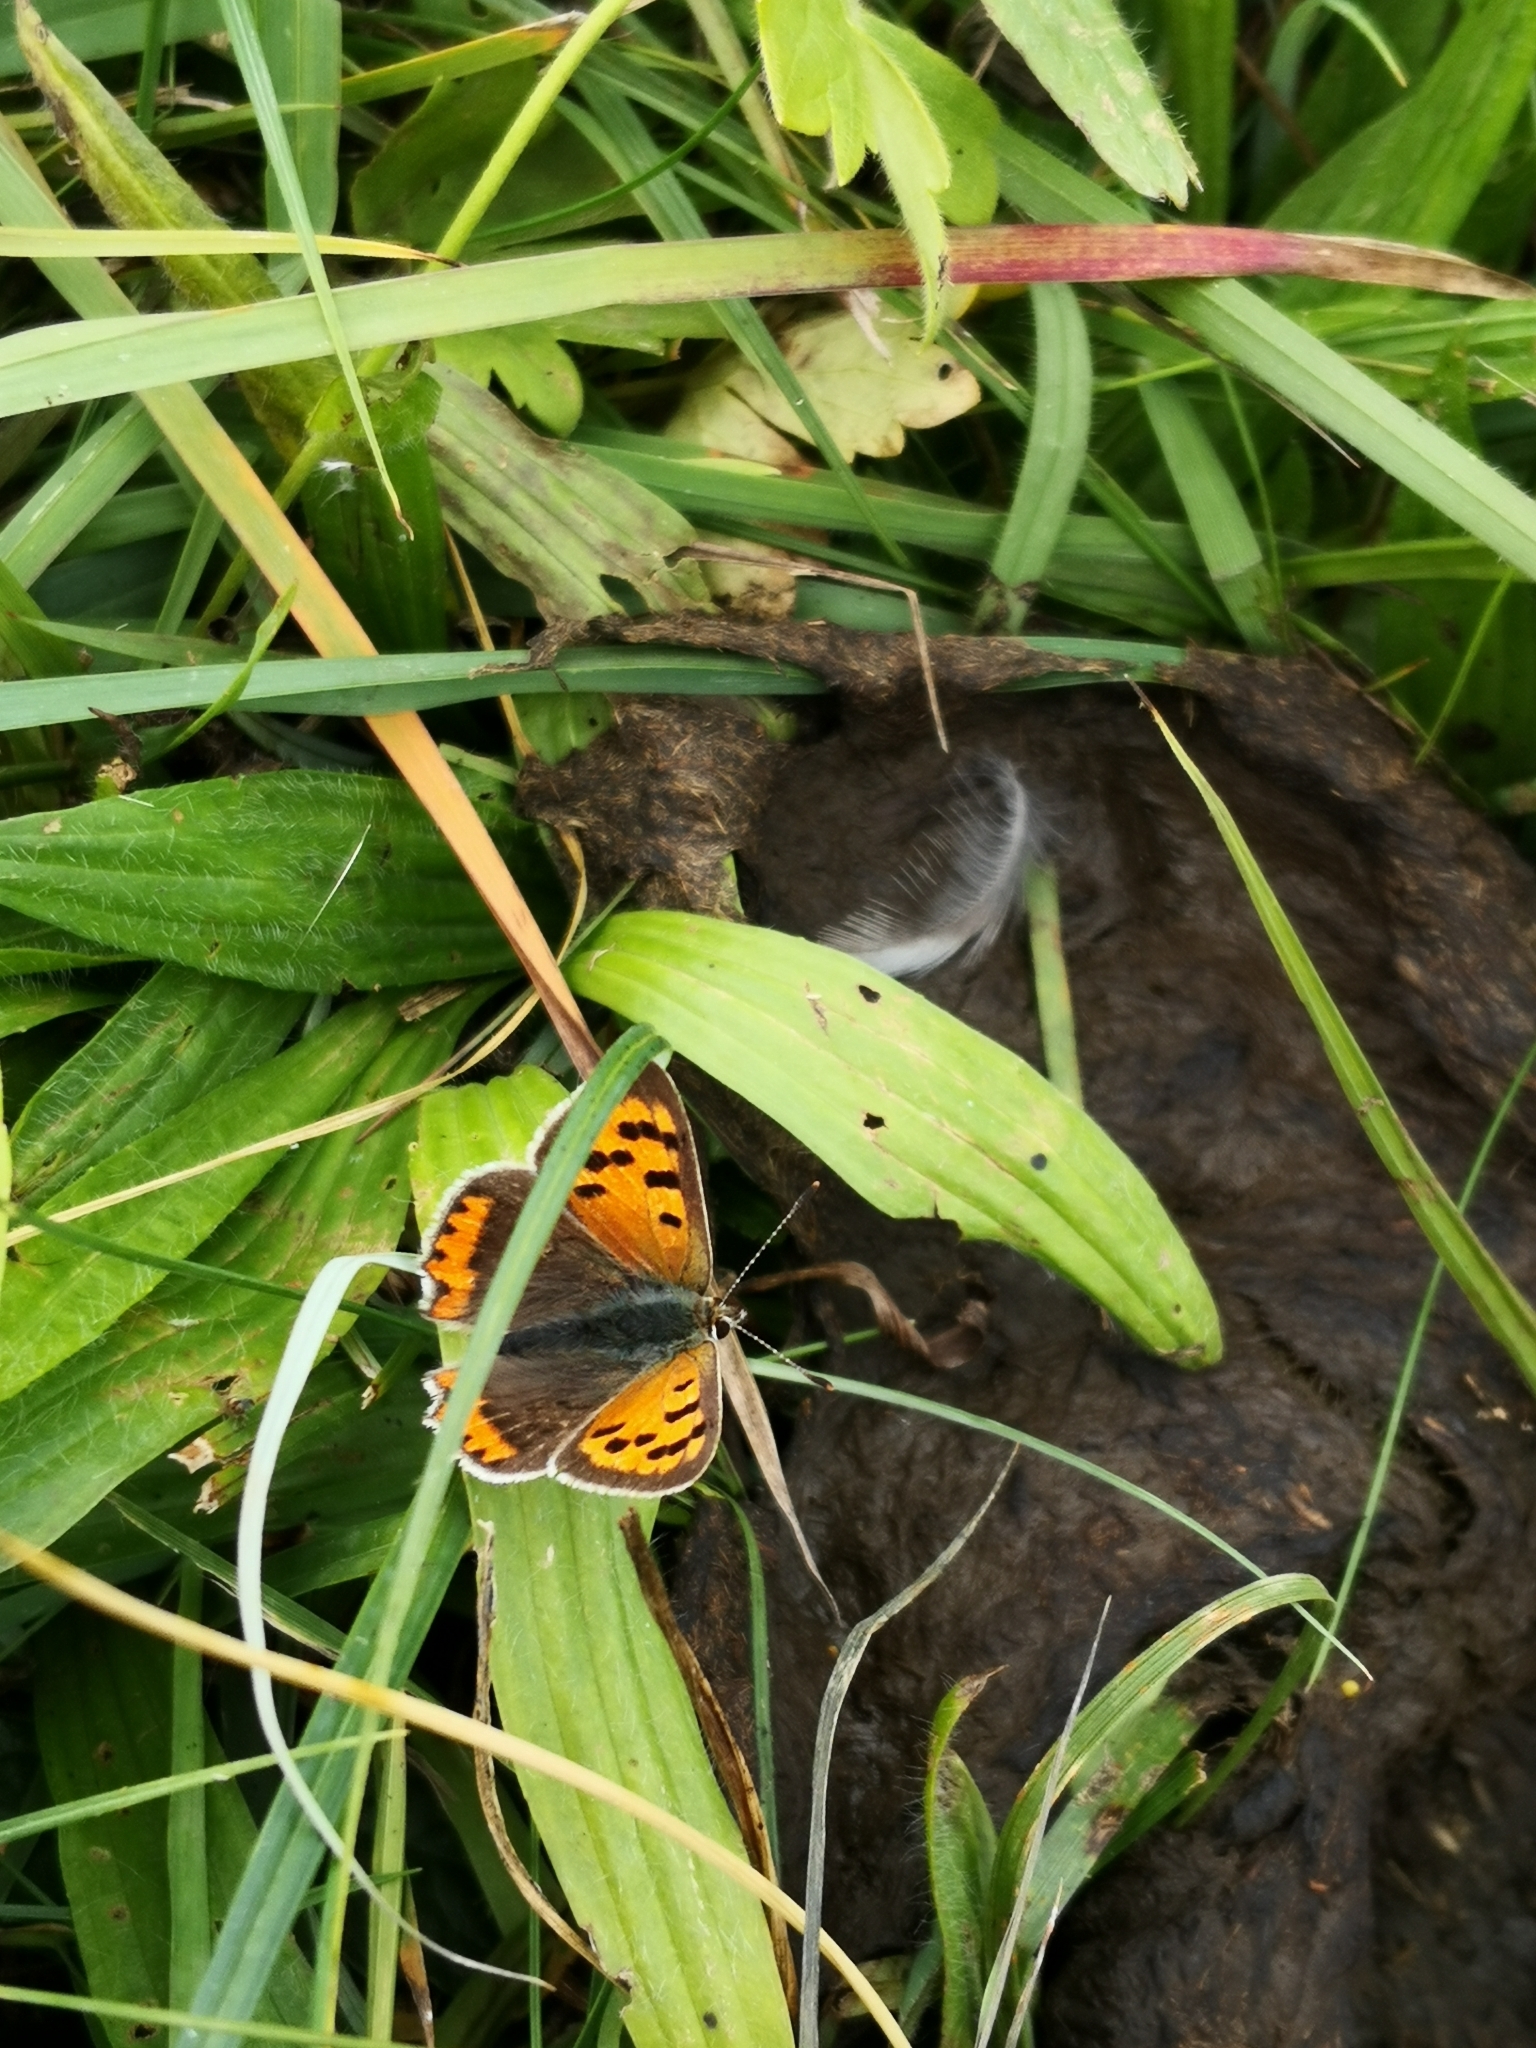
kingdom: Animalia
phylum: Arthropoda
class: Insecta
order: Lepidoptera
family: Lycaenidae
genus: Lycaena
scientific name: Lycaena phlaeas
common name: Small copper
